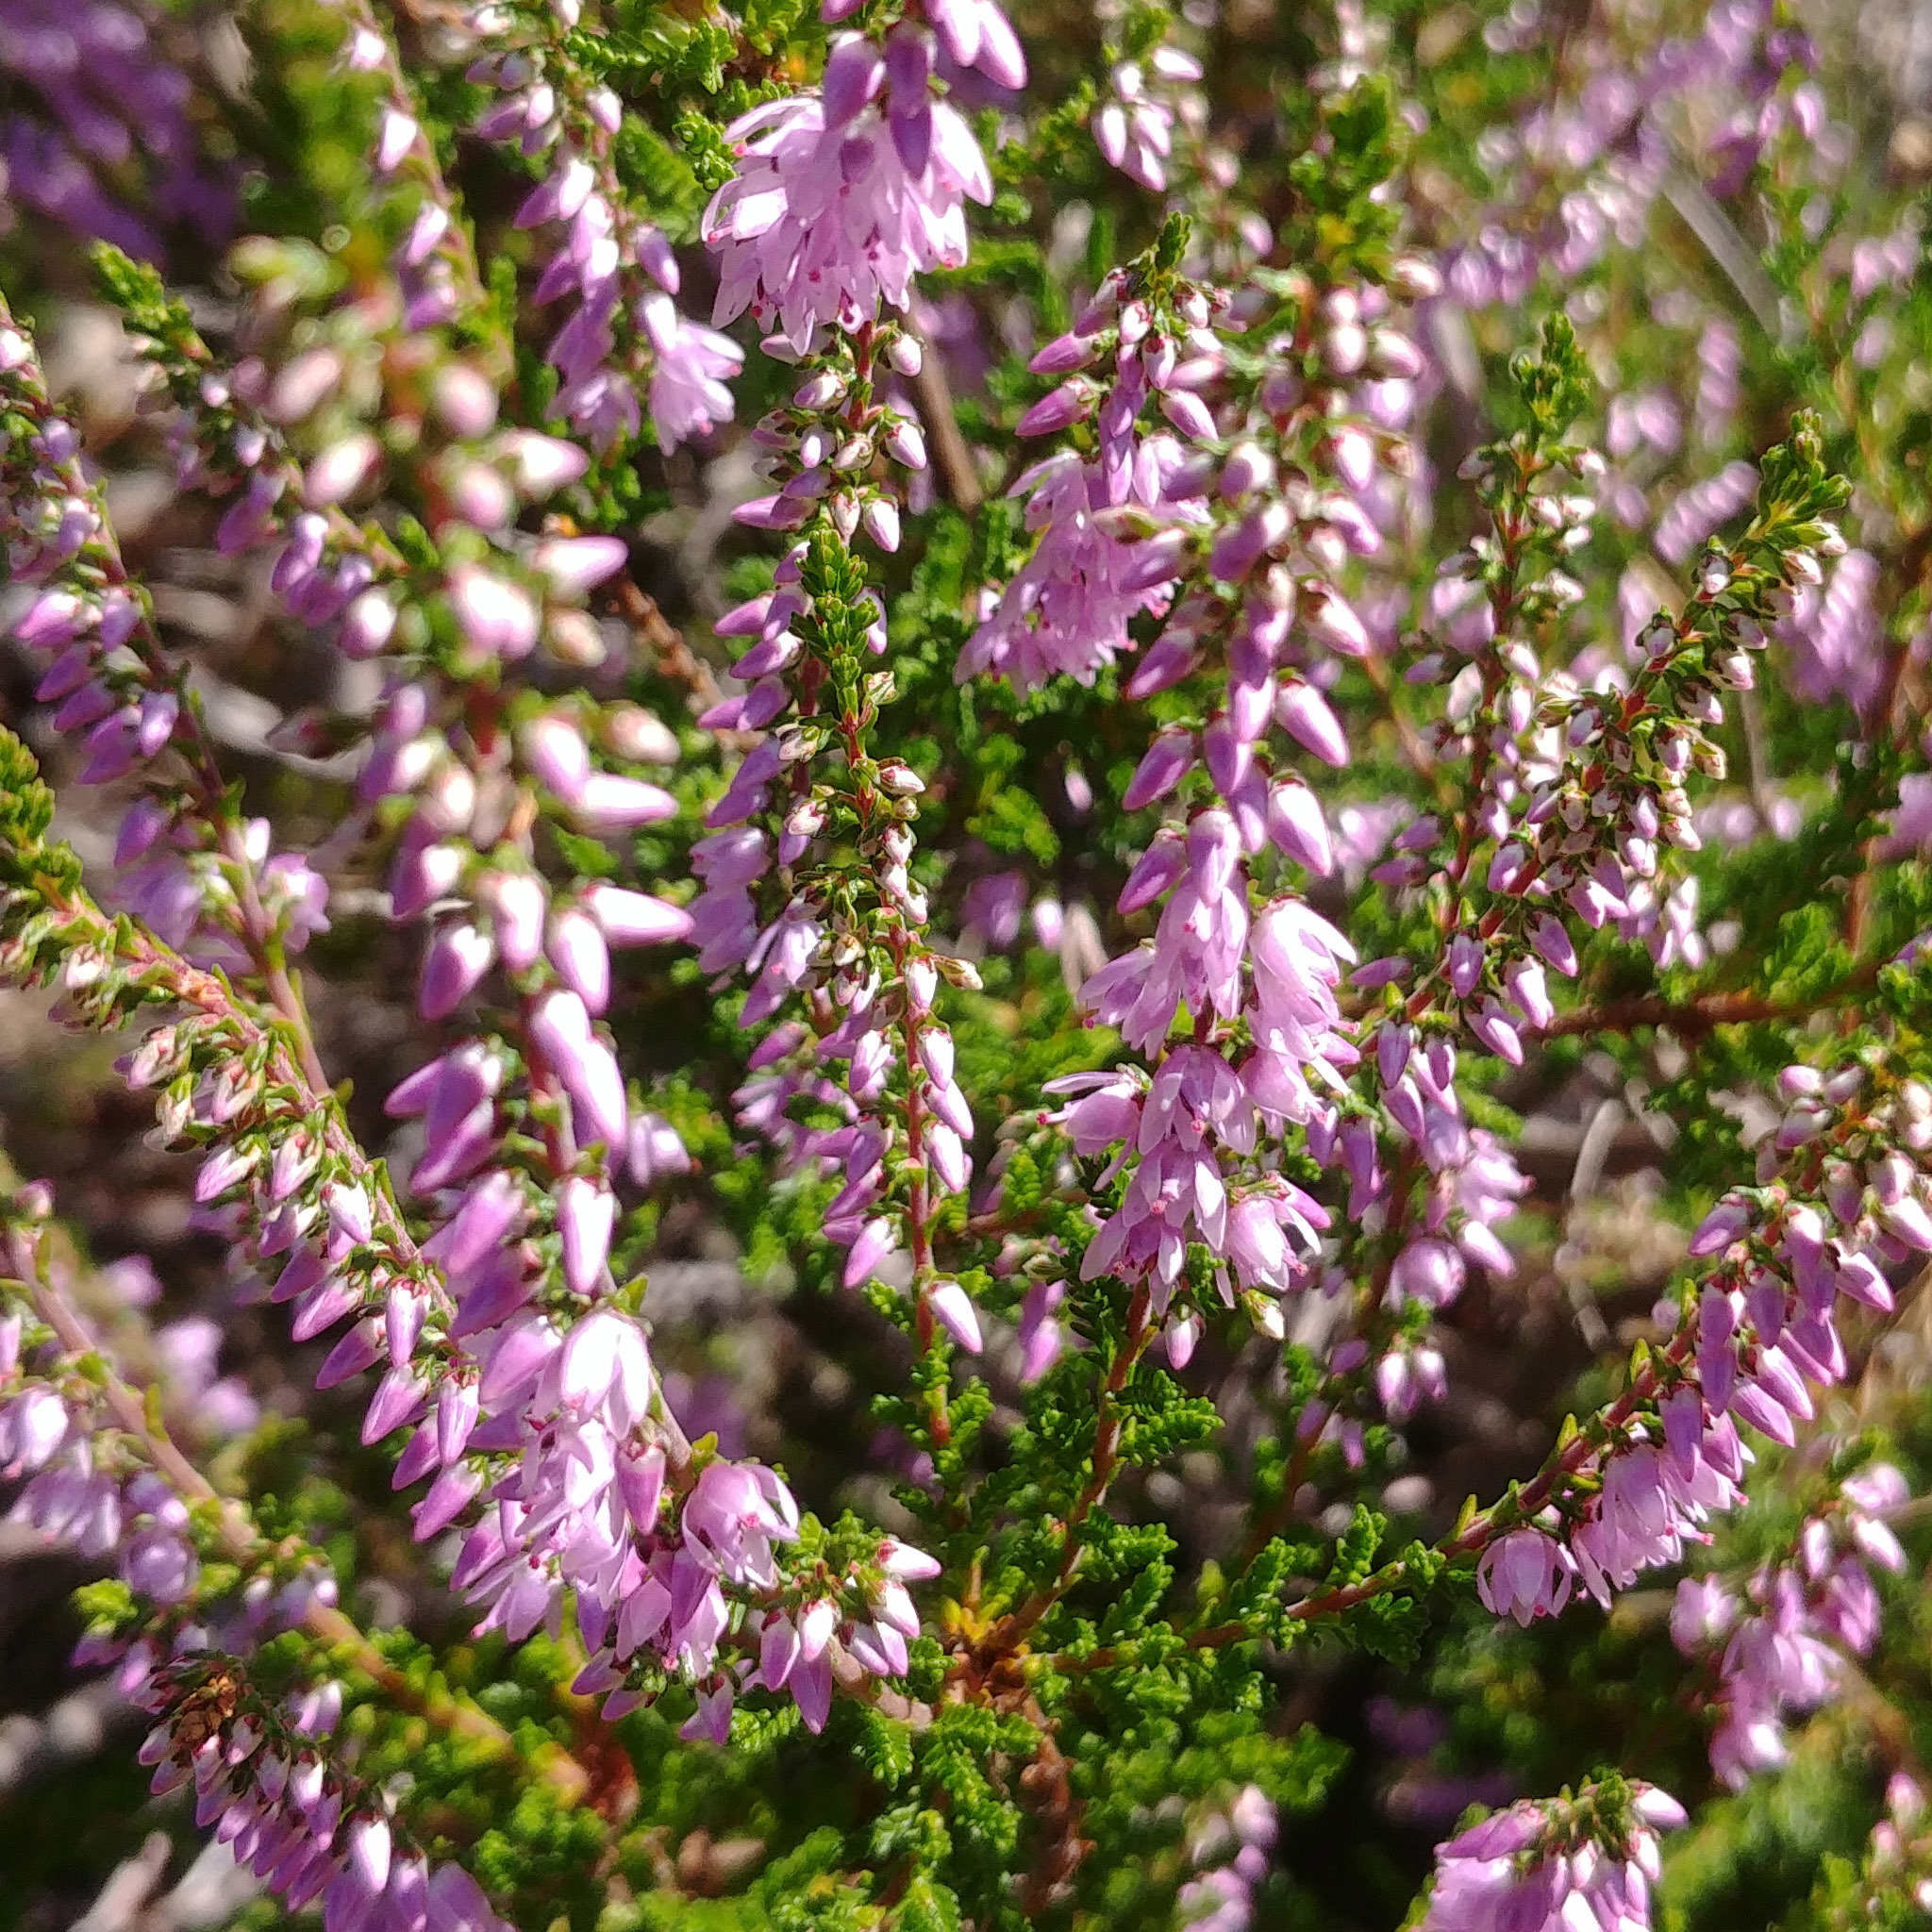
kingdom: Plantae
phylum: Tracheophyta
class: Magnoliopsida
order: Ericales
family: Ericaceae
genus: Calluna
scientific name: Calluna vulgaris
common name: Heather
